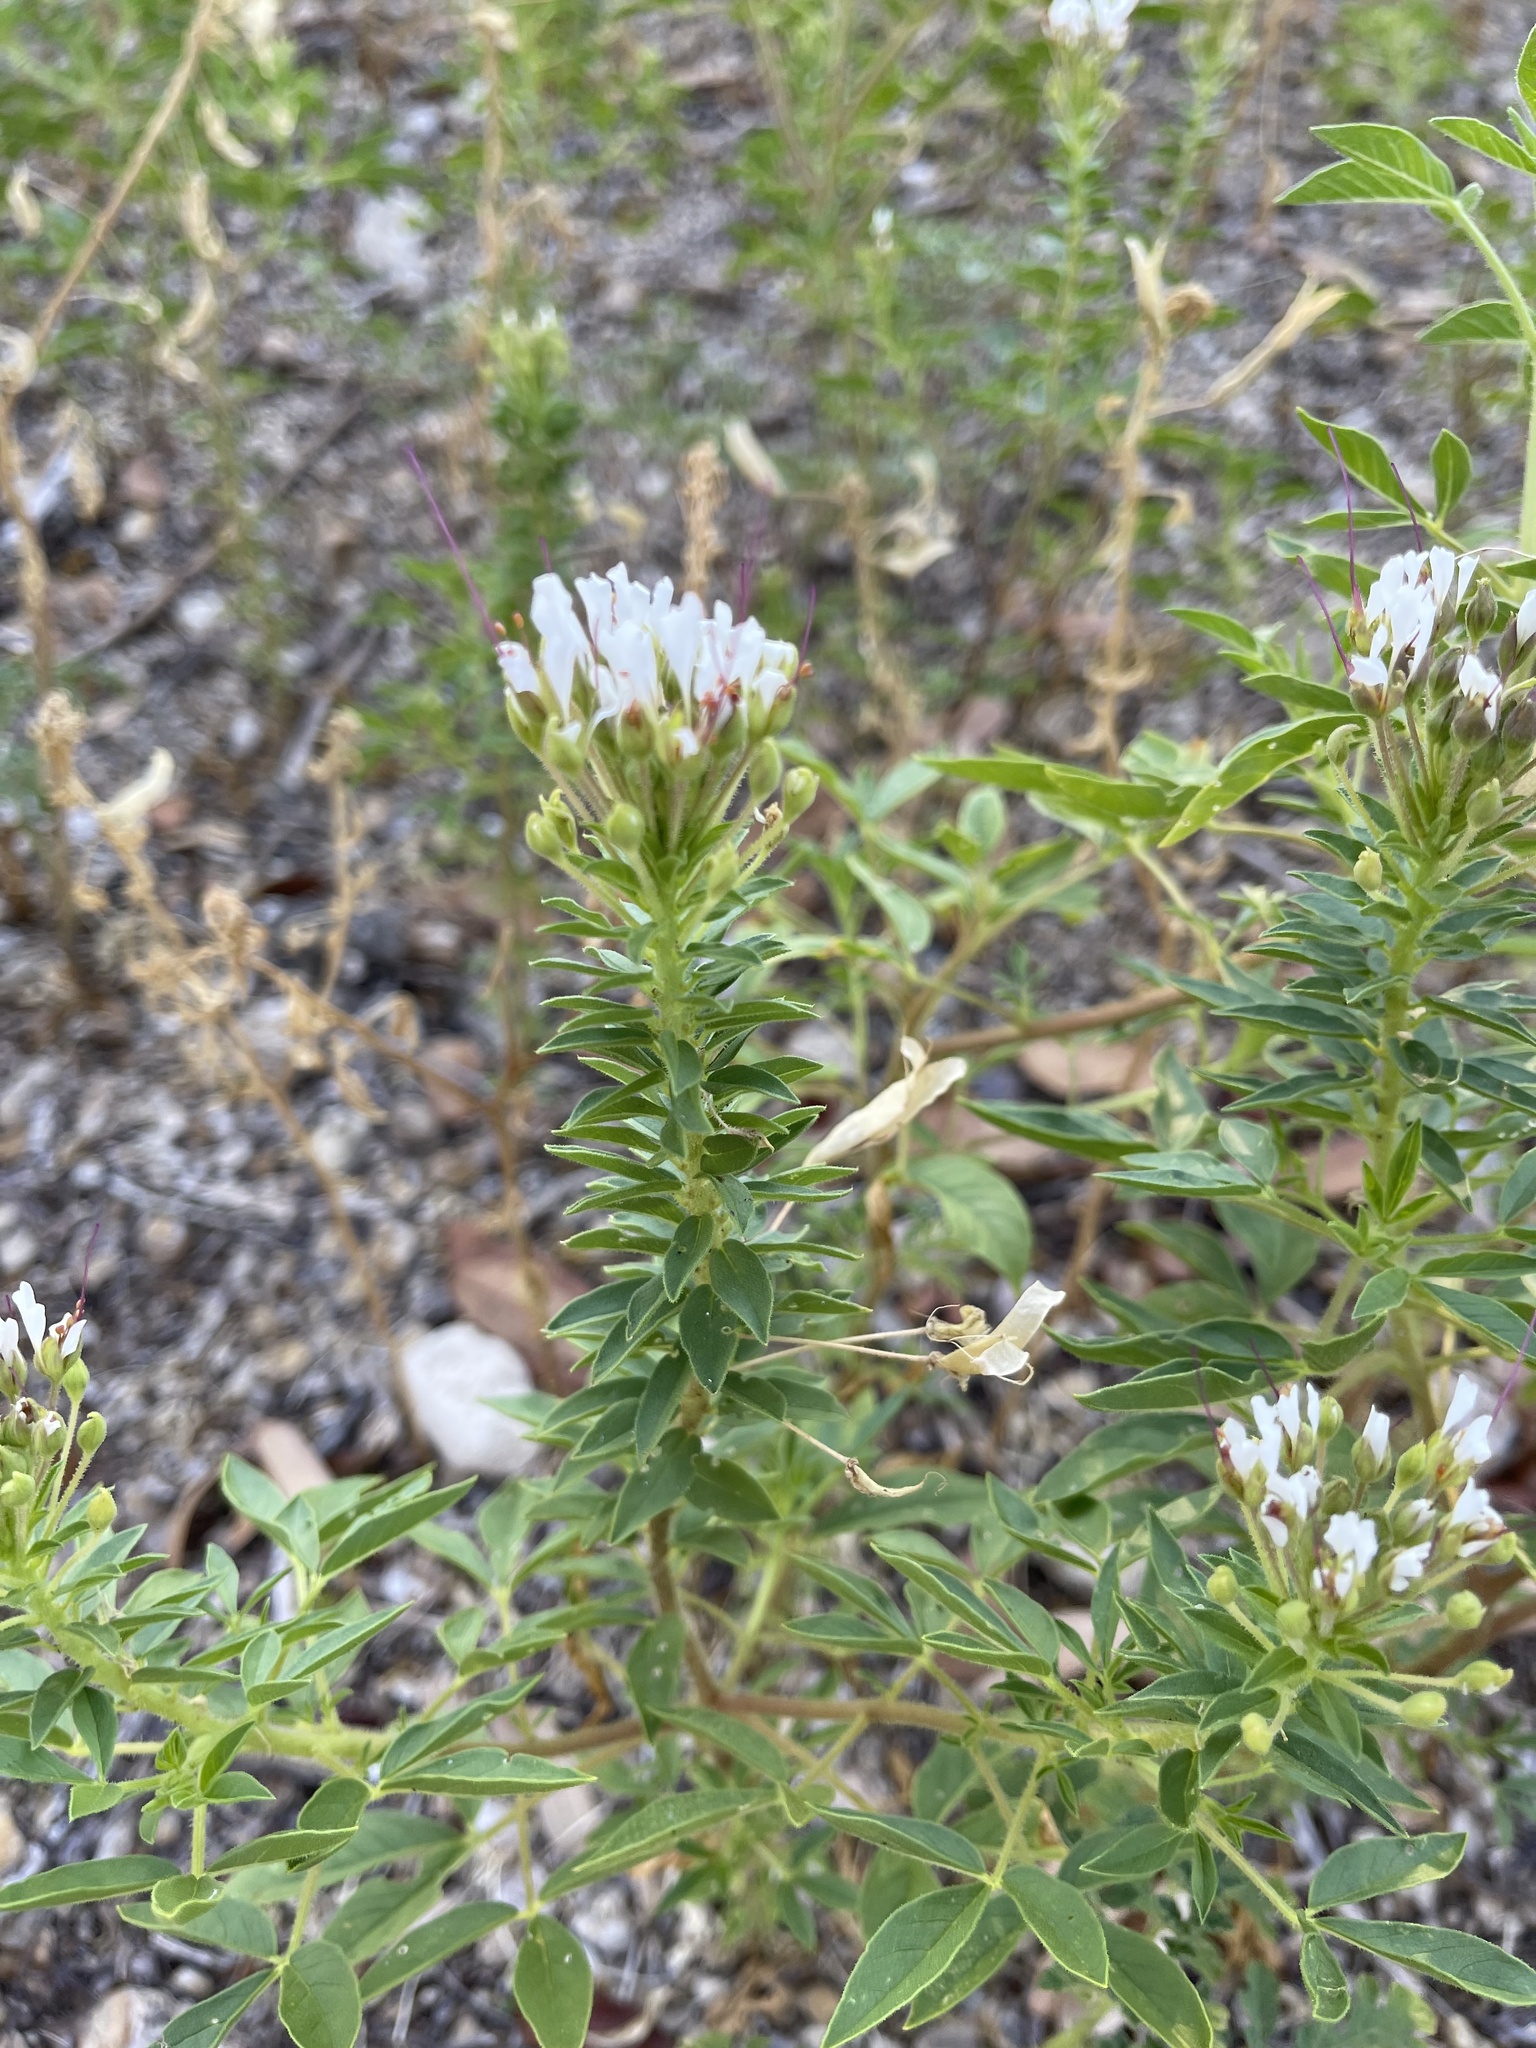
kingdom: Plantae
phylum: Tracheophyta
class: Magnoliopsida
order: Brassicales
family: Cleomaceae
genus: Polanisia
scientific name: Polanisia dodecandra
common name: Clammyweed
